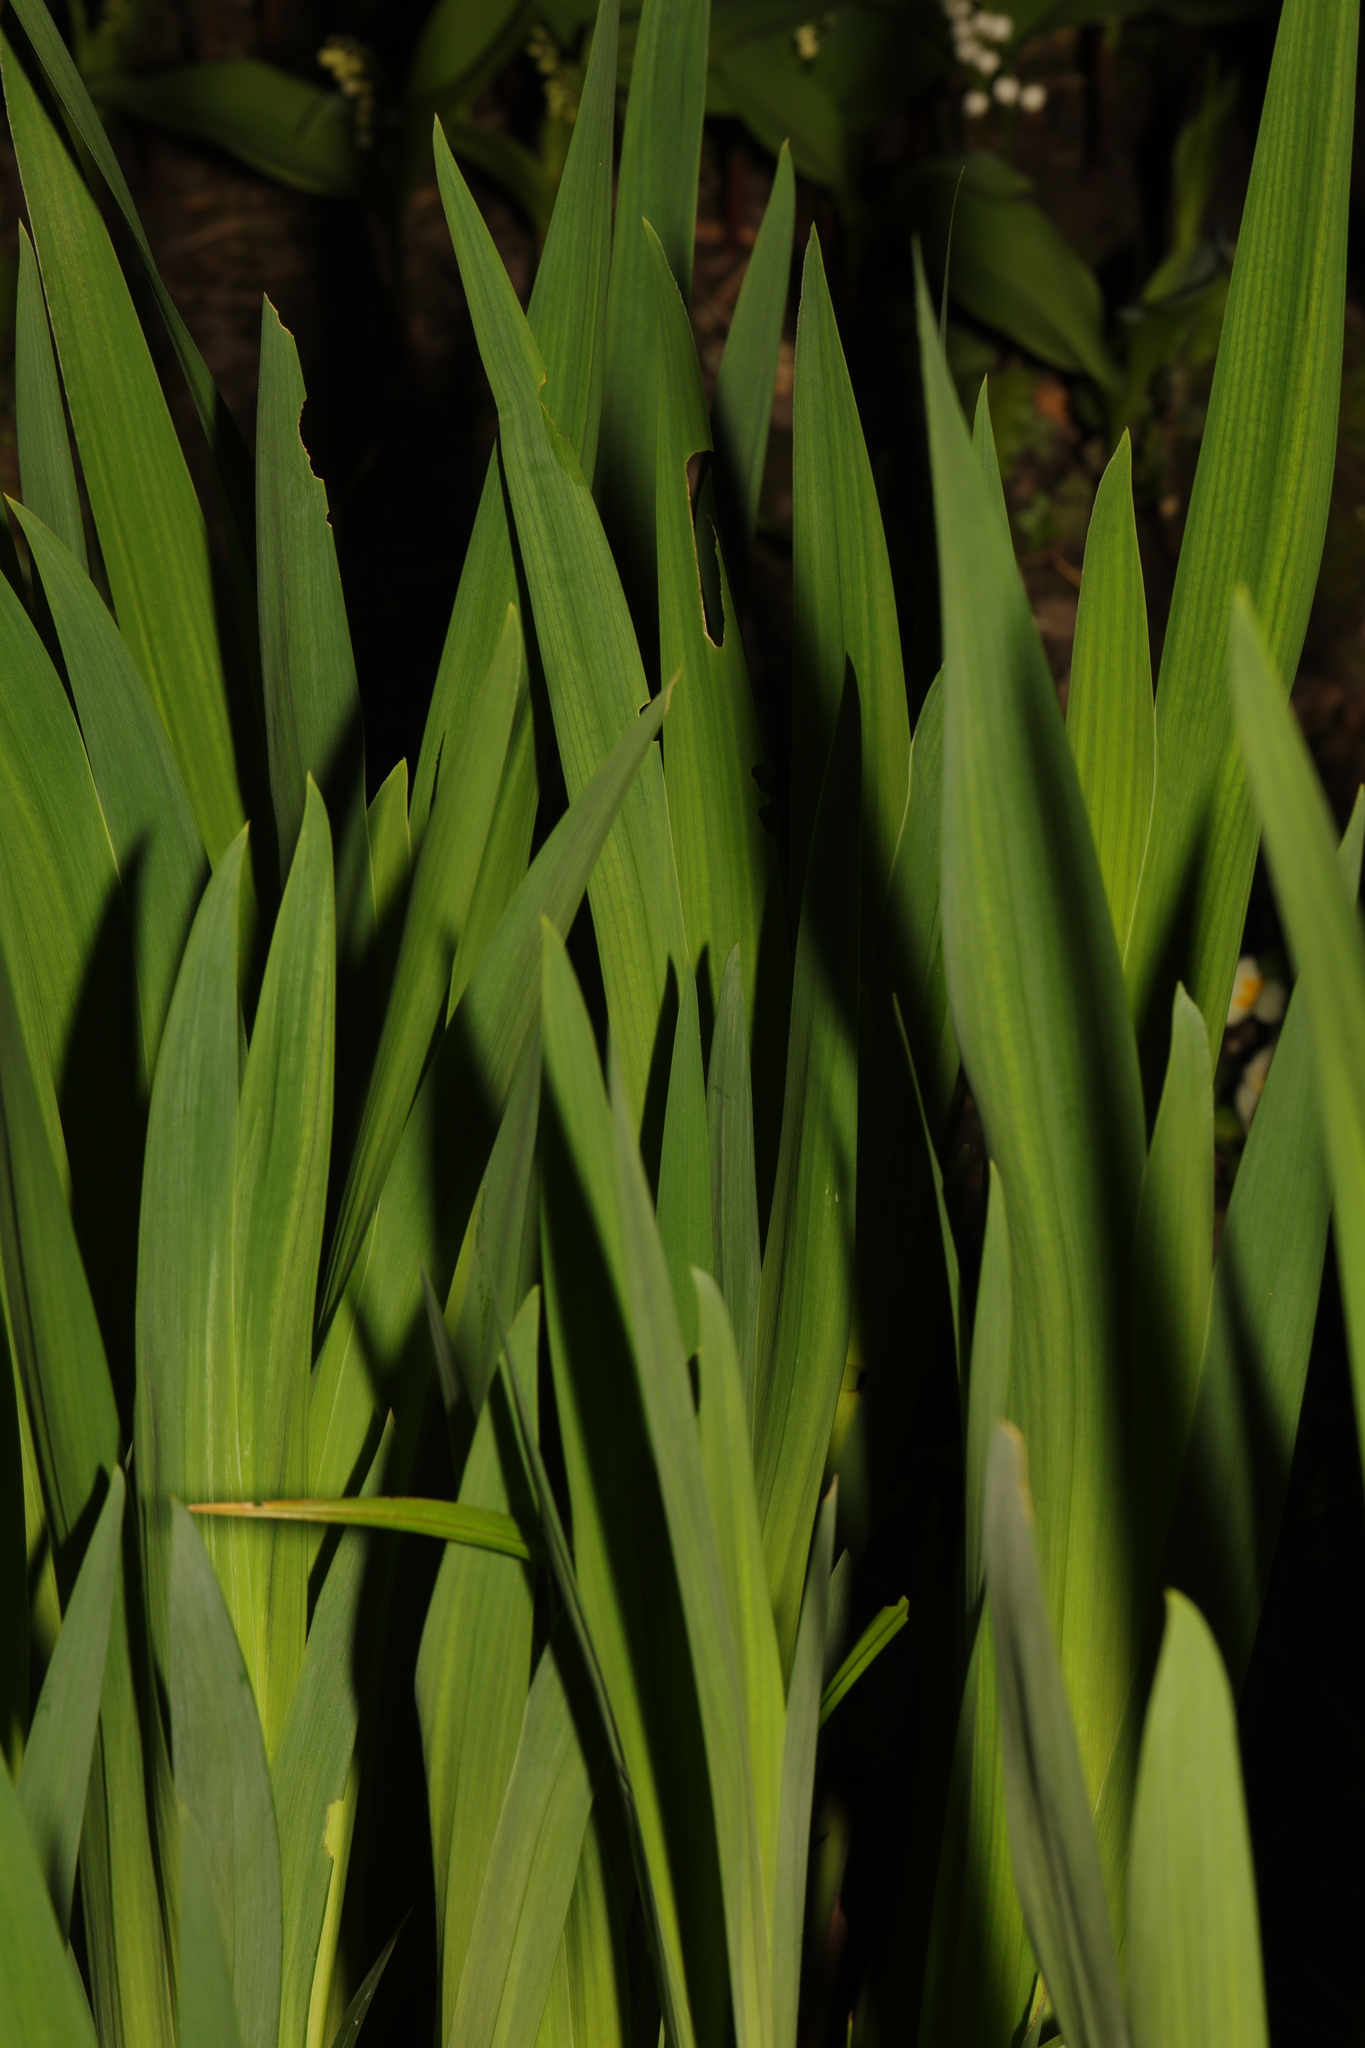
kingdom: Plantae
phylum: Tracheophyta
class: Liliopsida
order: Asparagales
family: Iridaceae
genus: Iris
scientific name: Iris pseudacorus
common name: Yellow flag
